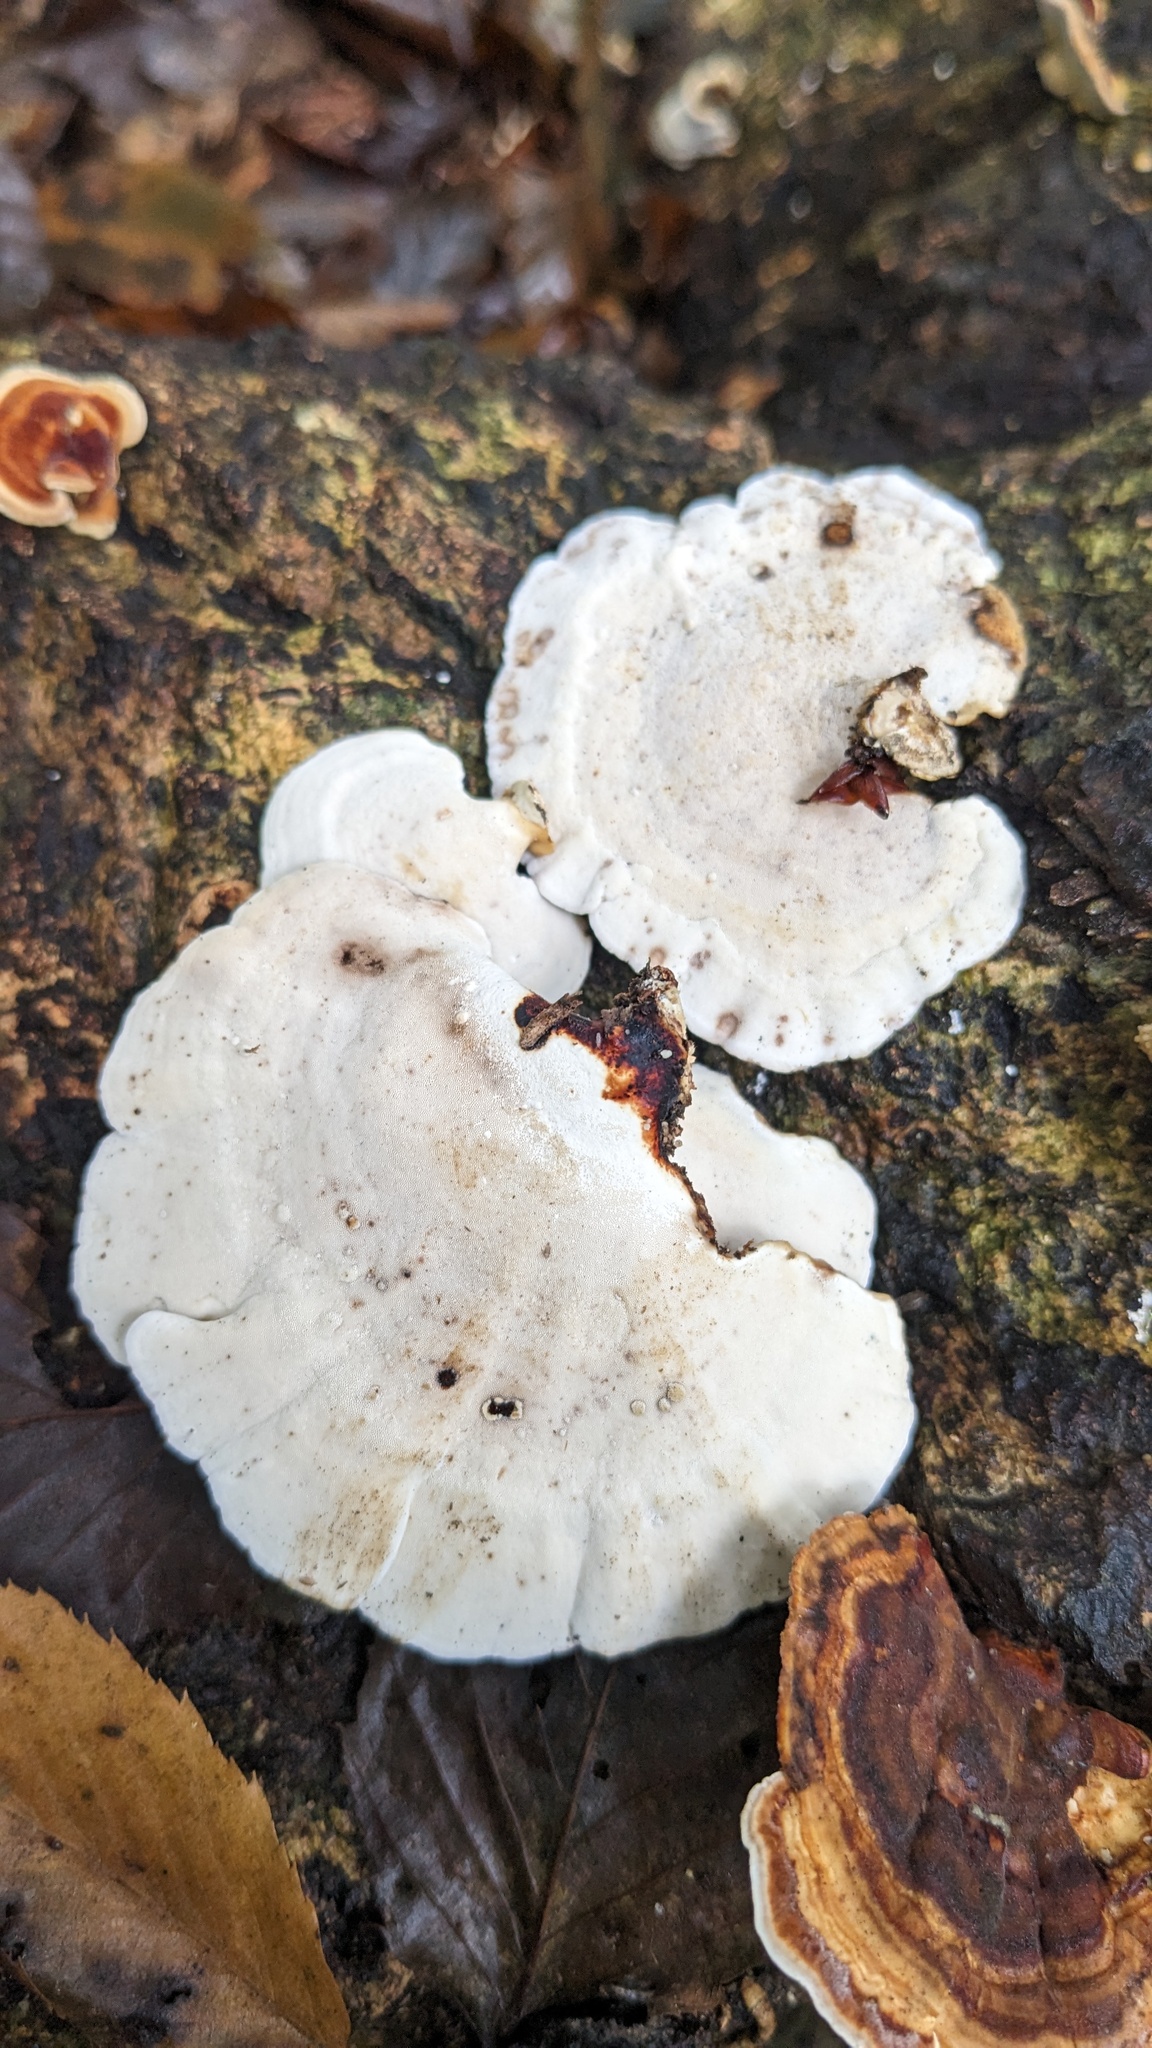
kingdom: Fungi
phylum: Basidiomycota
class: Agaricomycetes
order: Polyporales
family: Polyporaceae
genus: Microporus
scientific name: Microporus affinis
